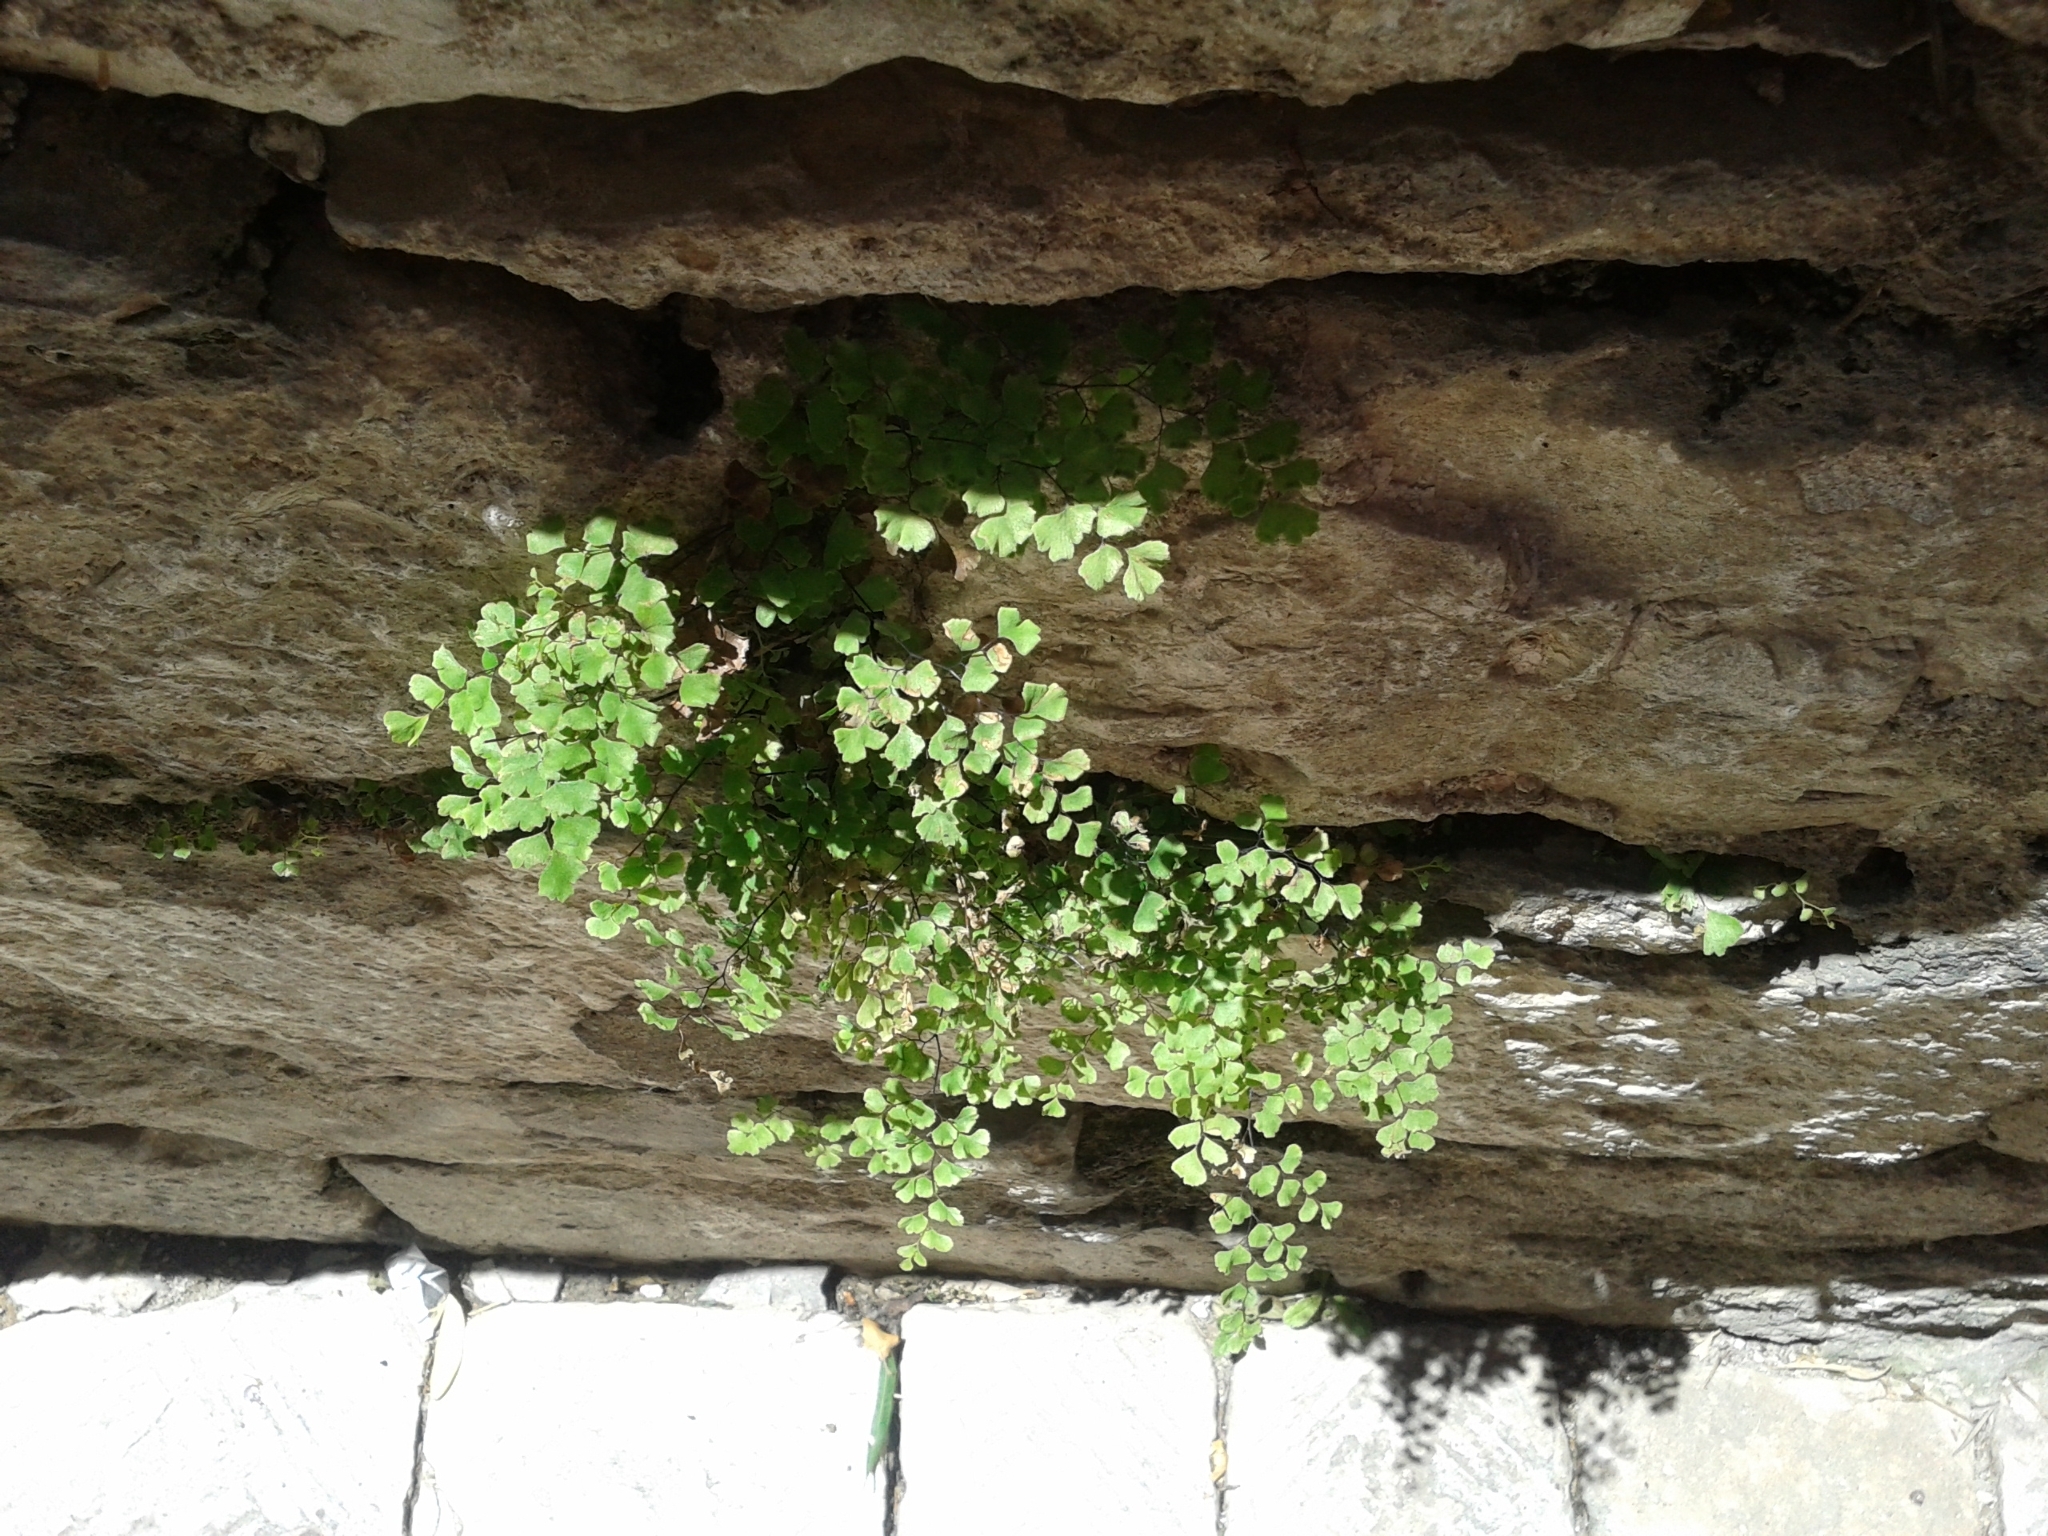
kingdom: Plantae
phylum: Tracheophyta
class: Polypodiopsida
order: Polypodiales
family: Pteridaceae
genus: Adiantum
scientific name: Adiantum capillus-veneris
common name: Maidenhair fern
